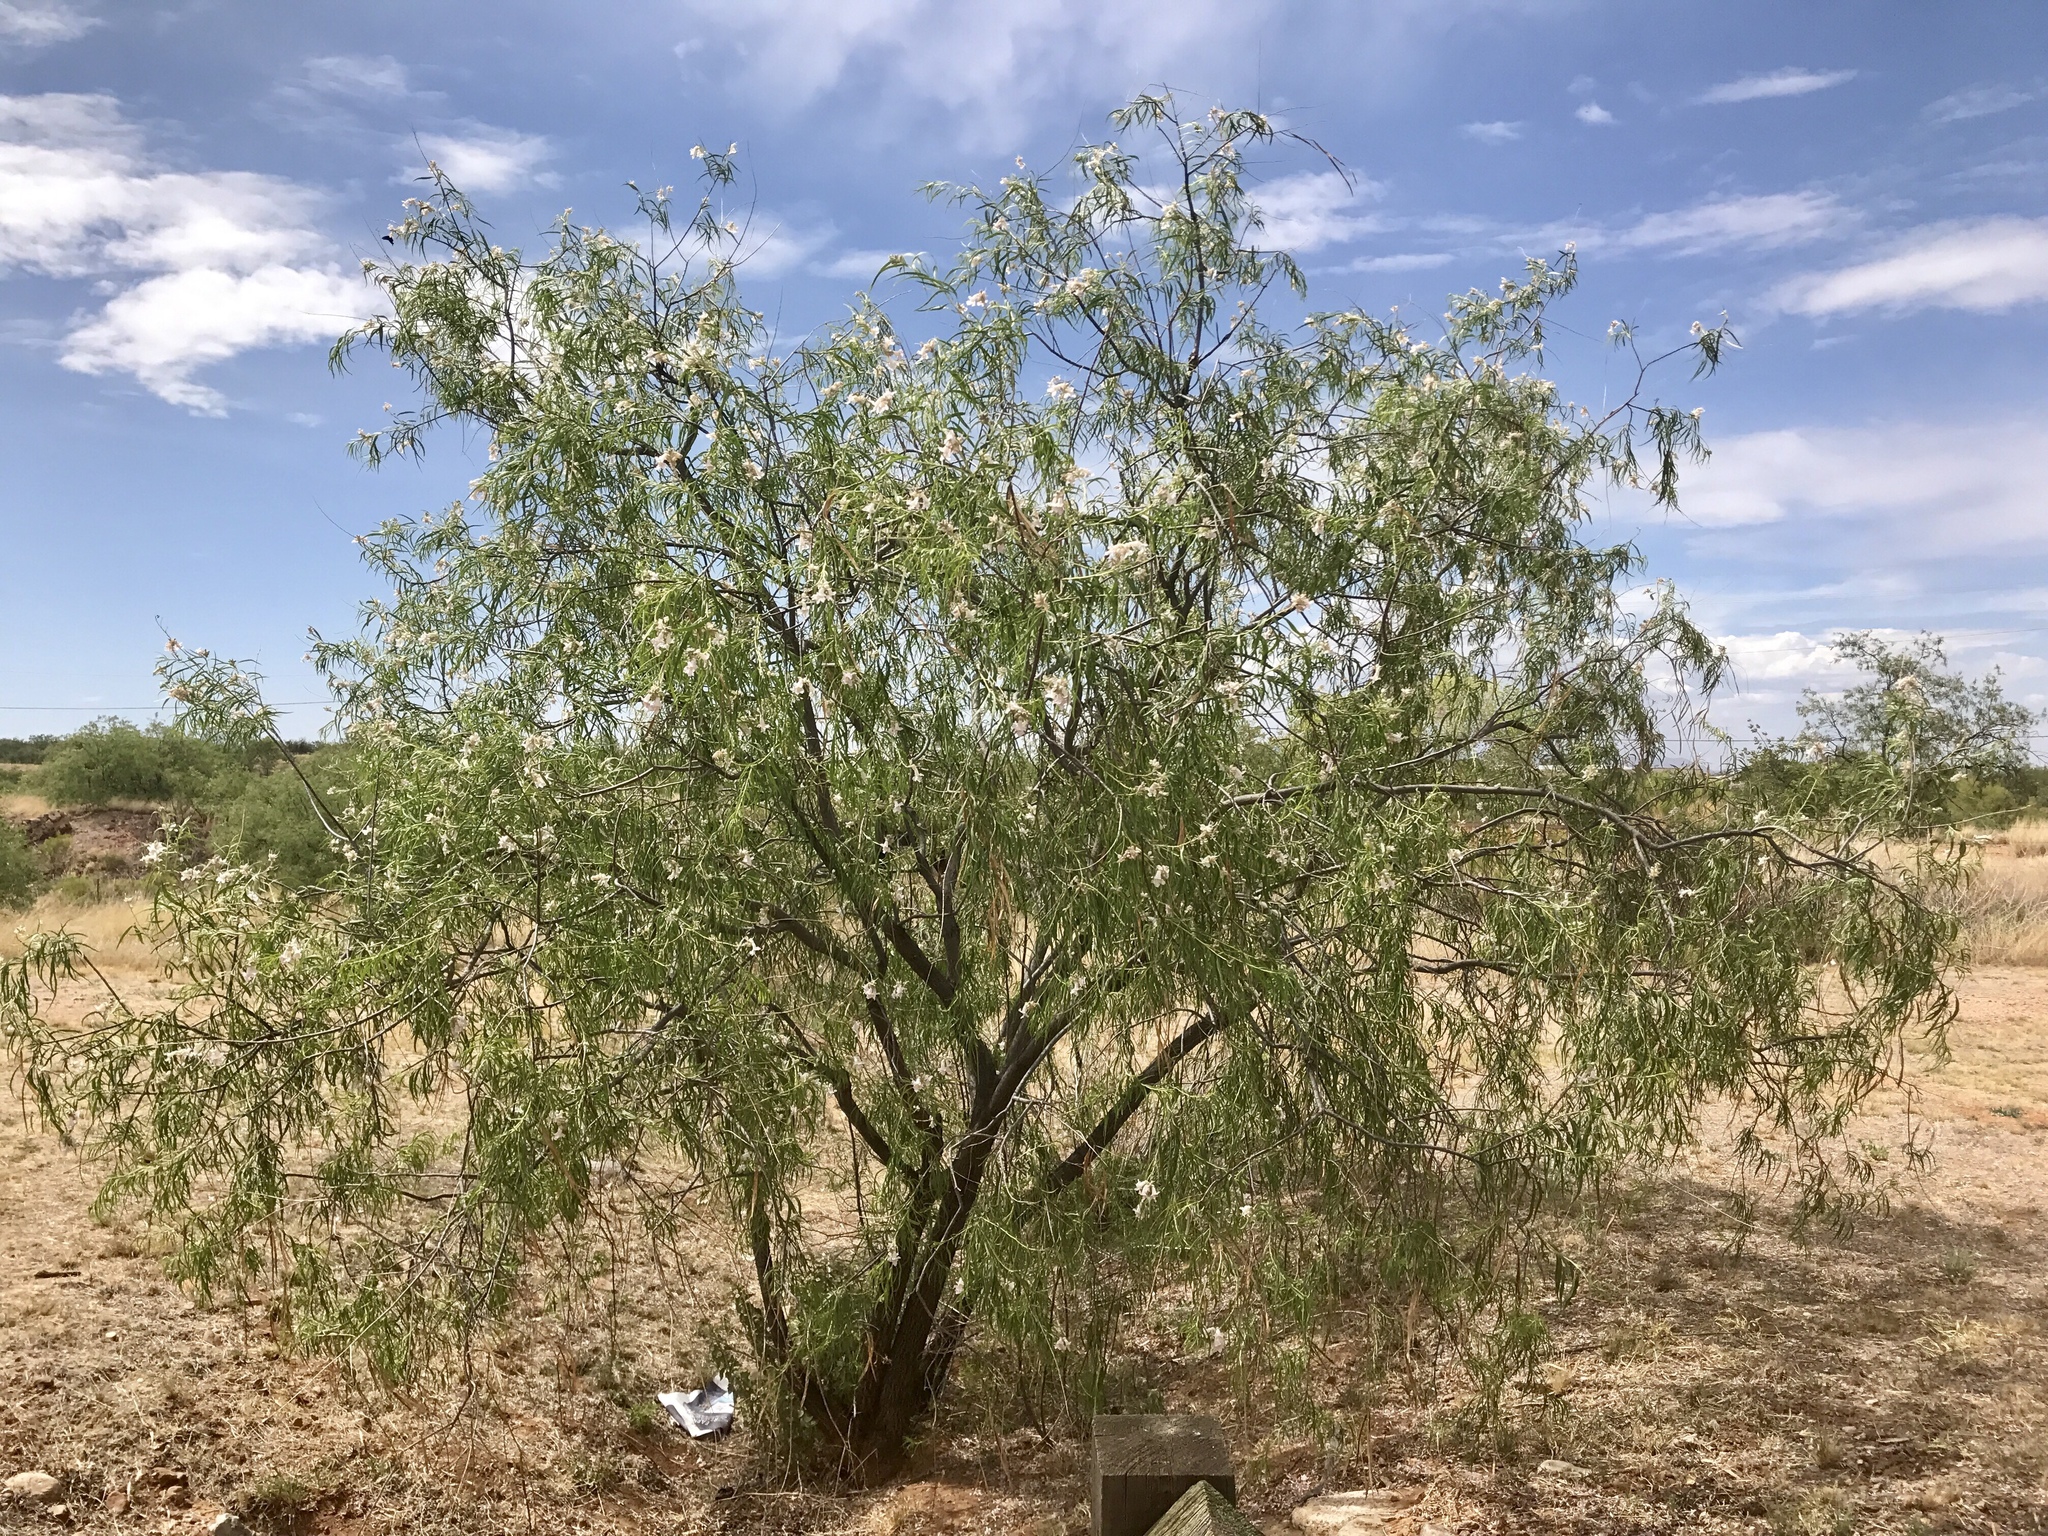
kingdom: Plantae
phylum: Tracheophyta
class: Magnoliopsida
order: Lamiales
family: Bignoniaceae
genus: Chilopsis
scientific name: Chilopsis linearis
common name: Desert-willow
